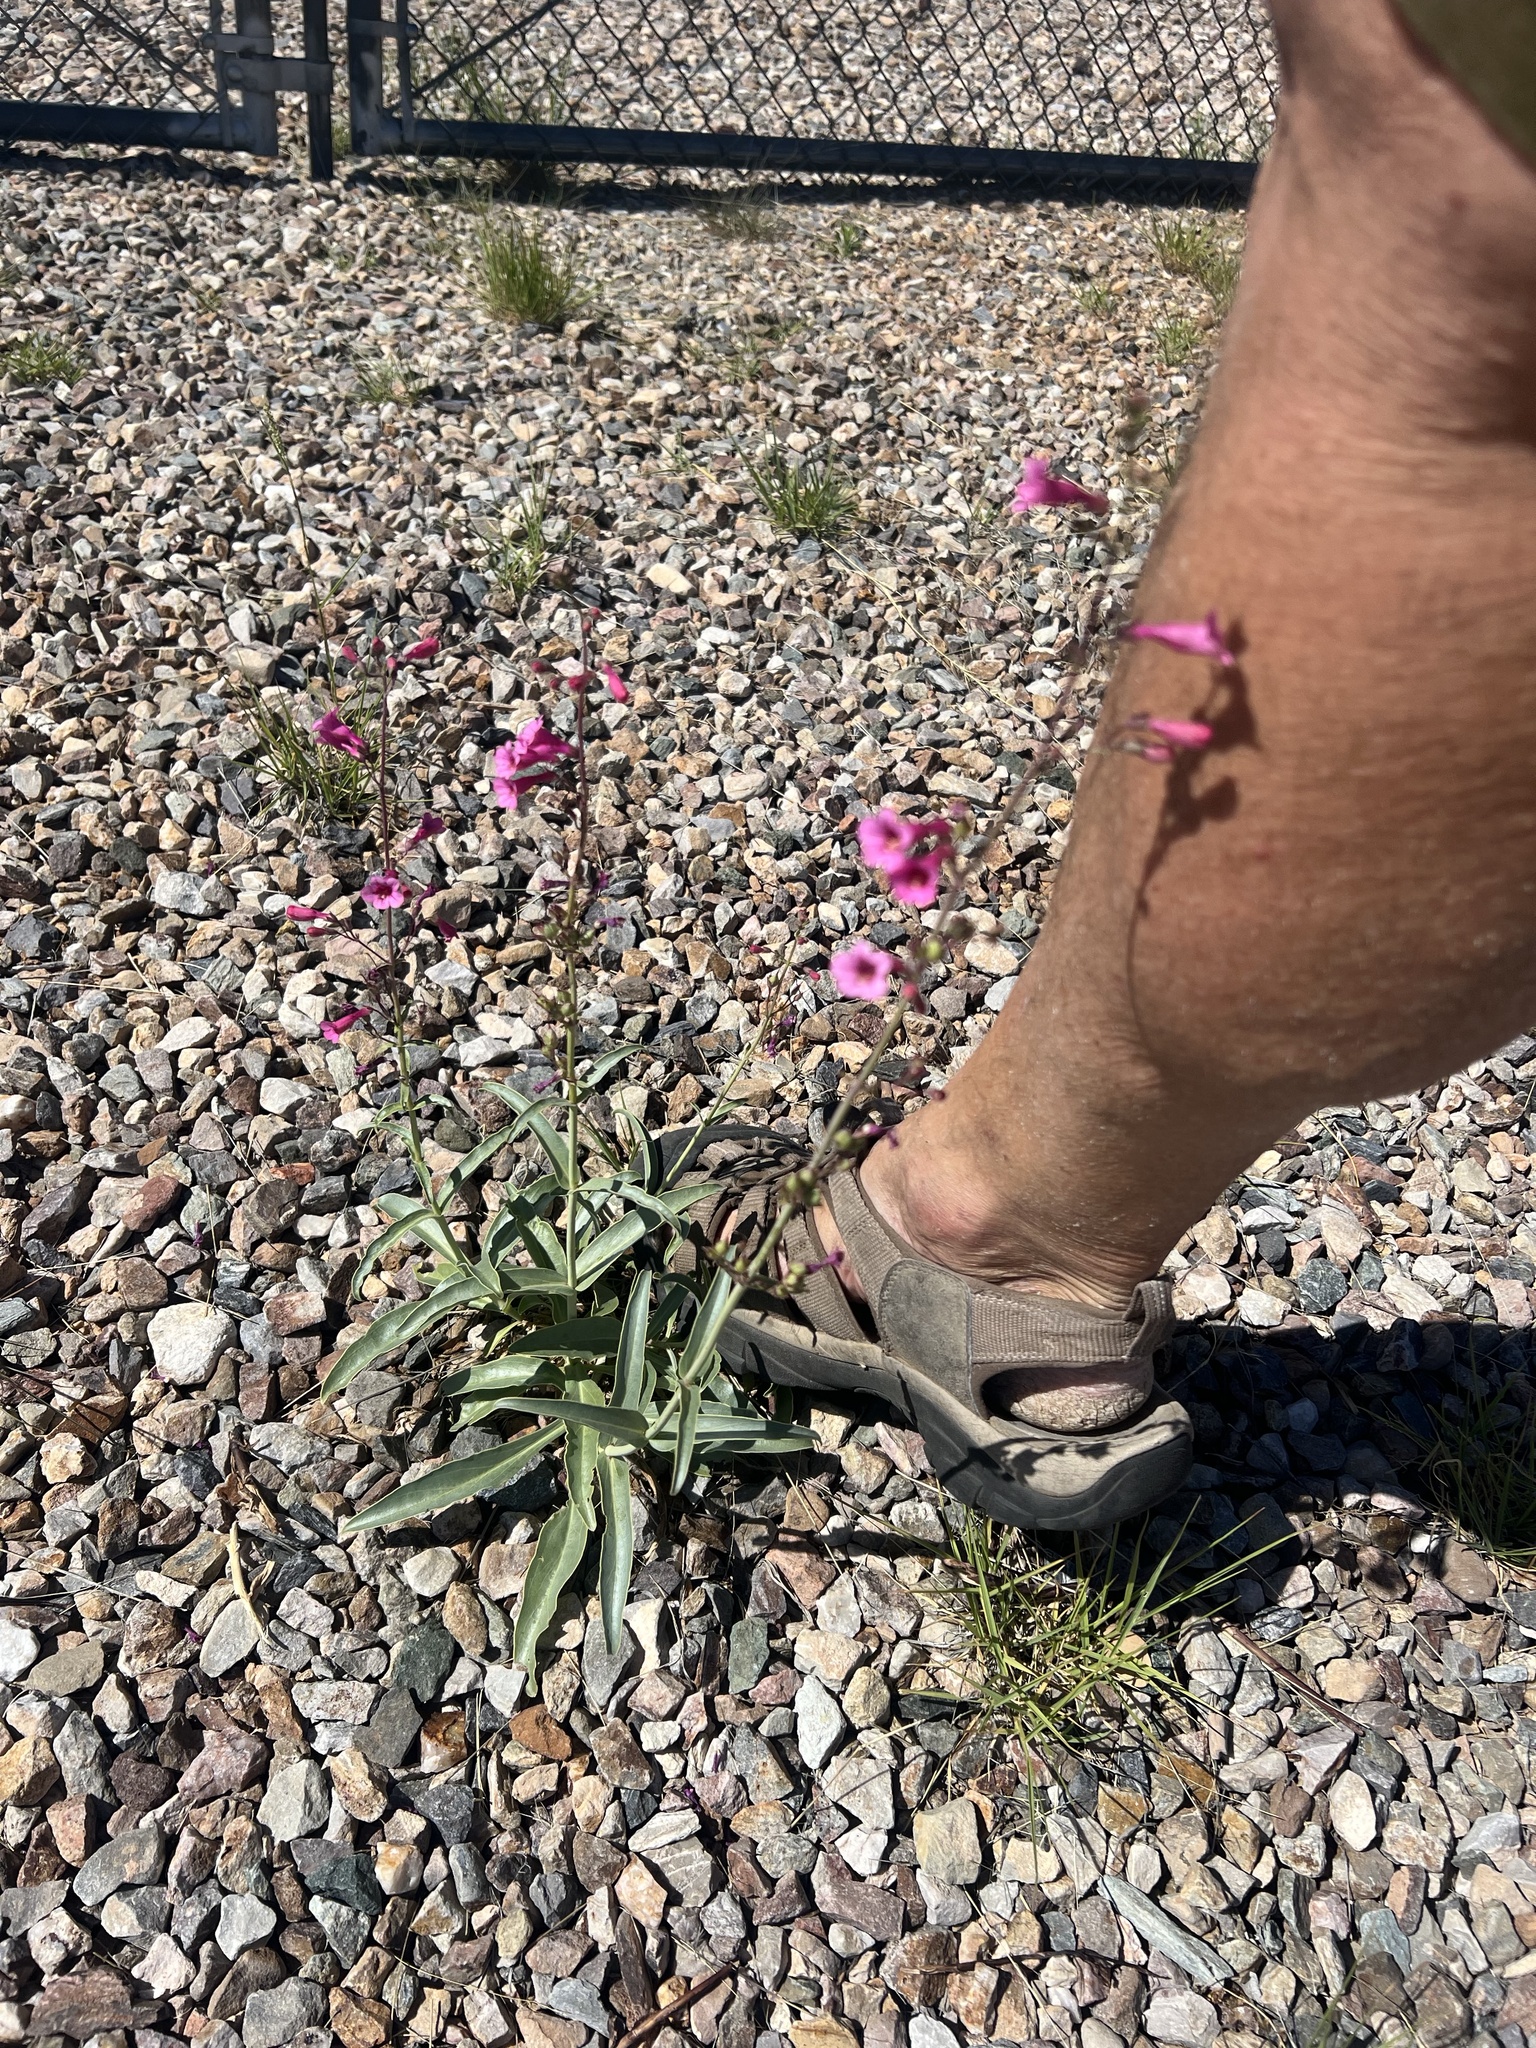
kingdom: Plantae
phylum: Tracheophyta
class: Magnoliopsida
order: Lamiales
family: Plantaginaceae
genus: Penstemon
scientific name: Penstemon parryi
